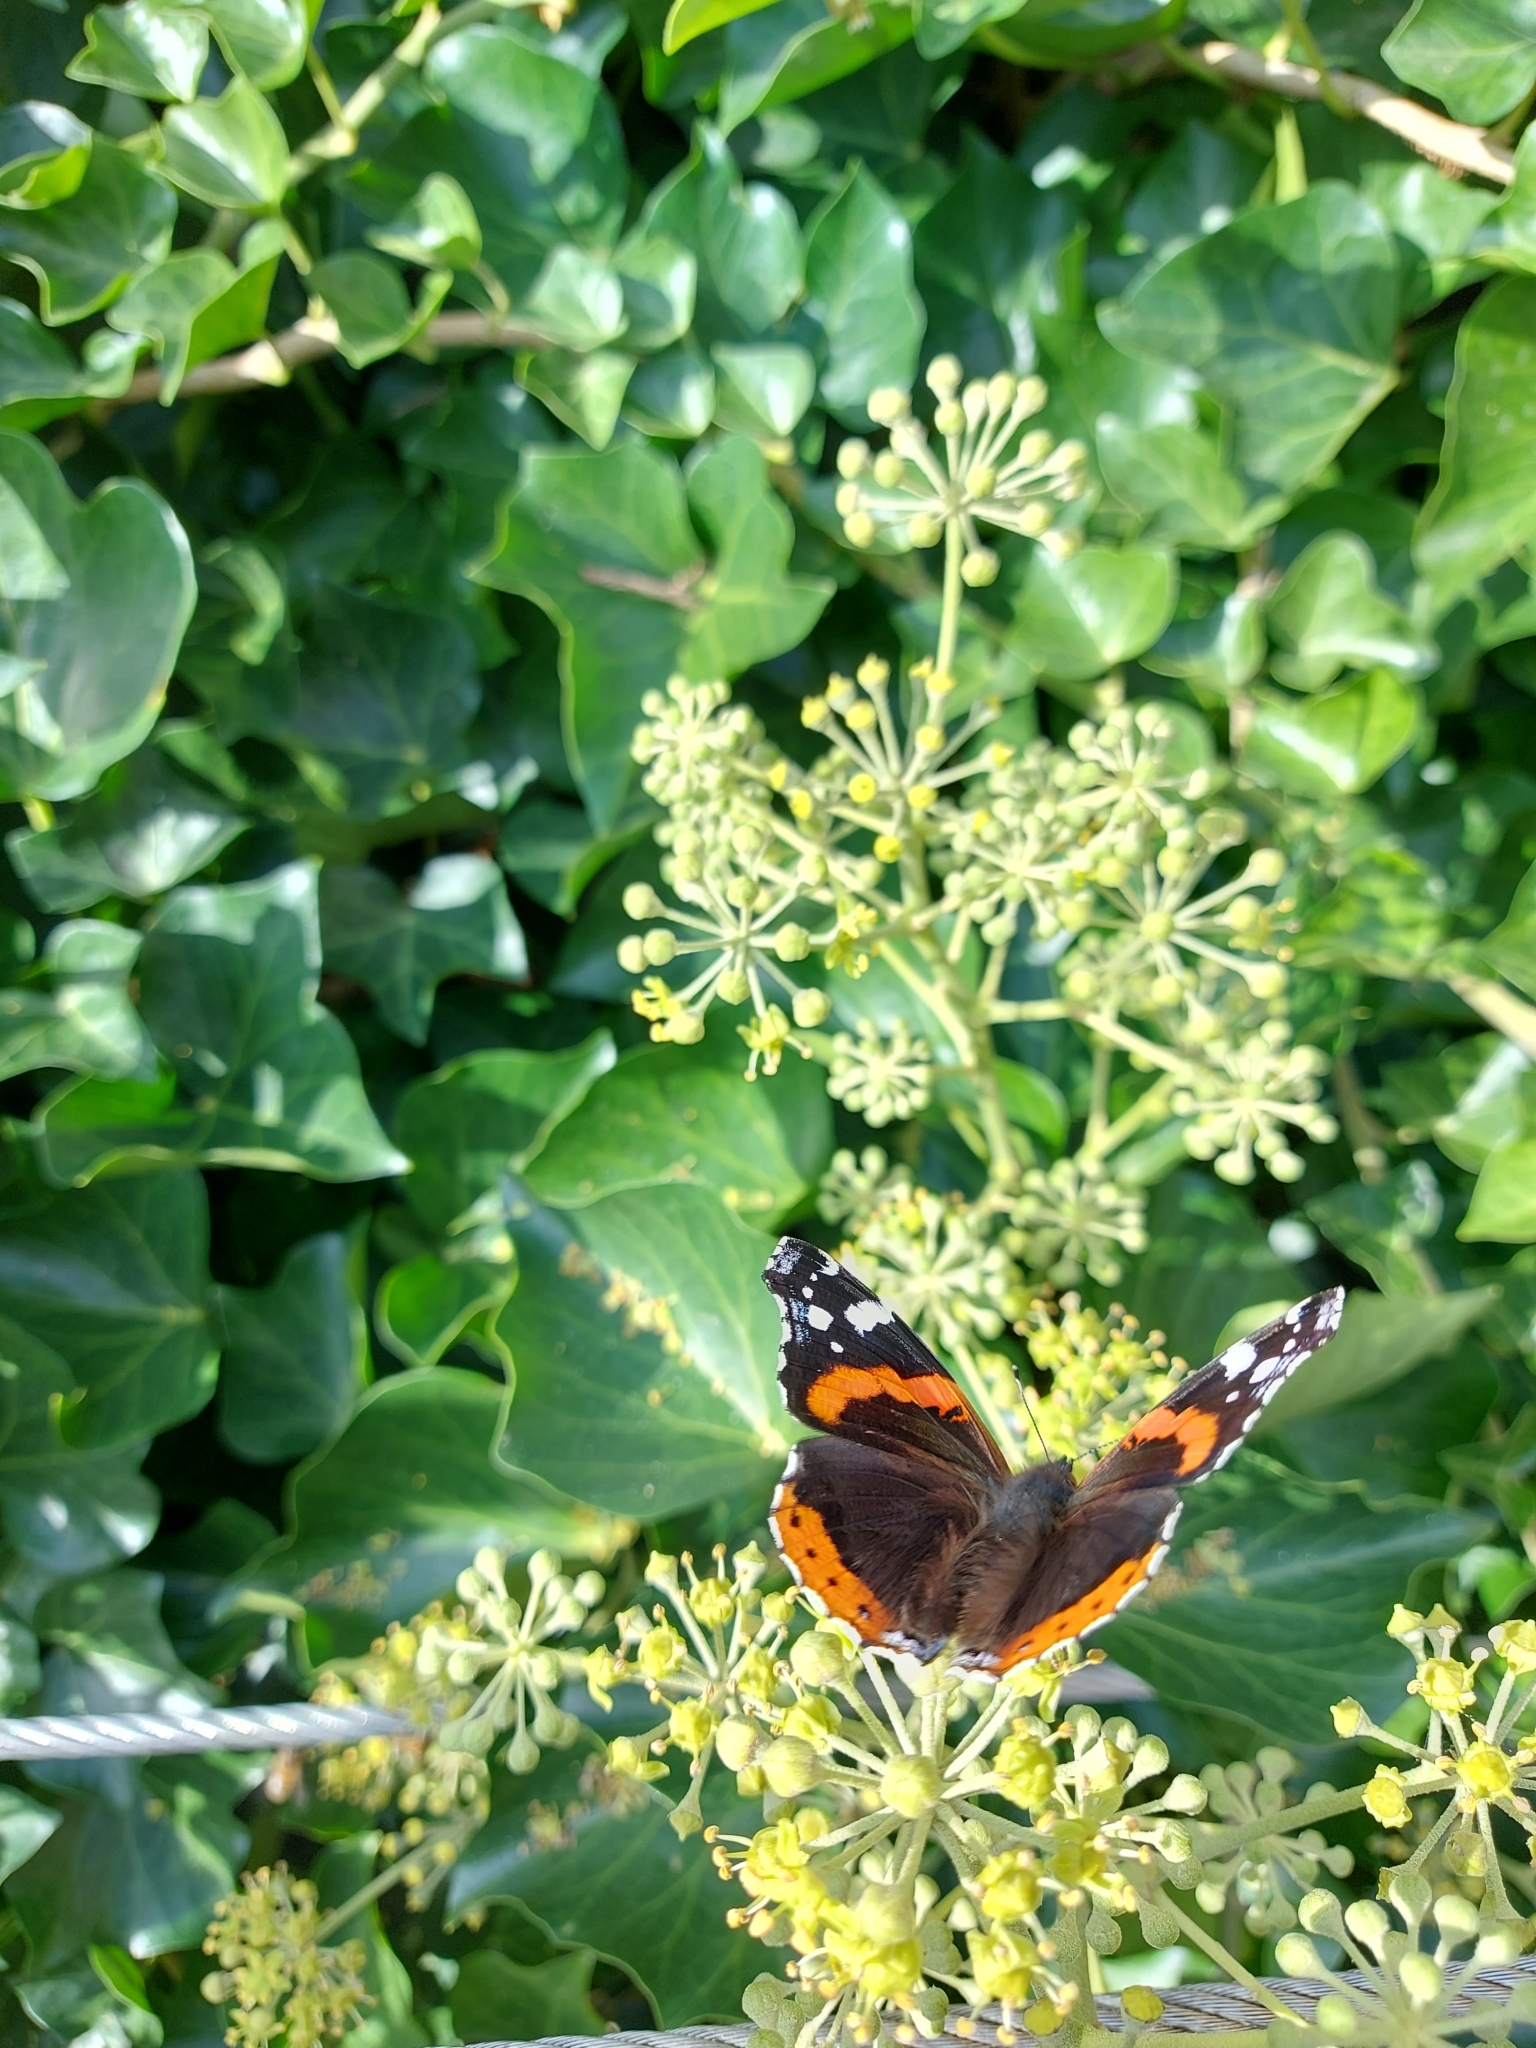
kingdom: Animalia
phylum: Arthropoda
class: Insecta
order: Lepidoptera
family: Nymphalidae
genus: Vanessa
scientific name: Vanessa atalanta
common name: Red admiral
